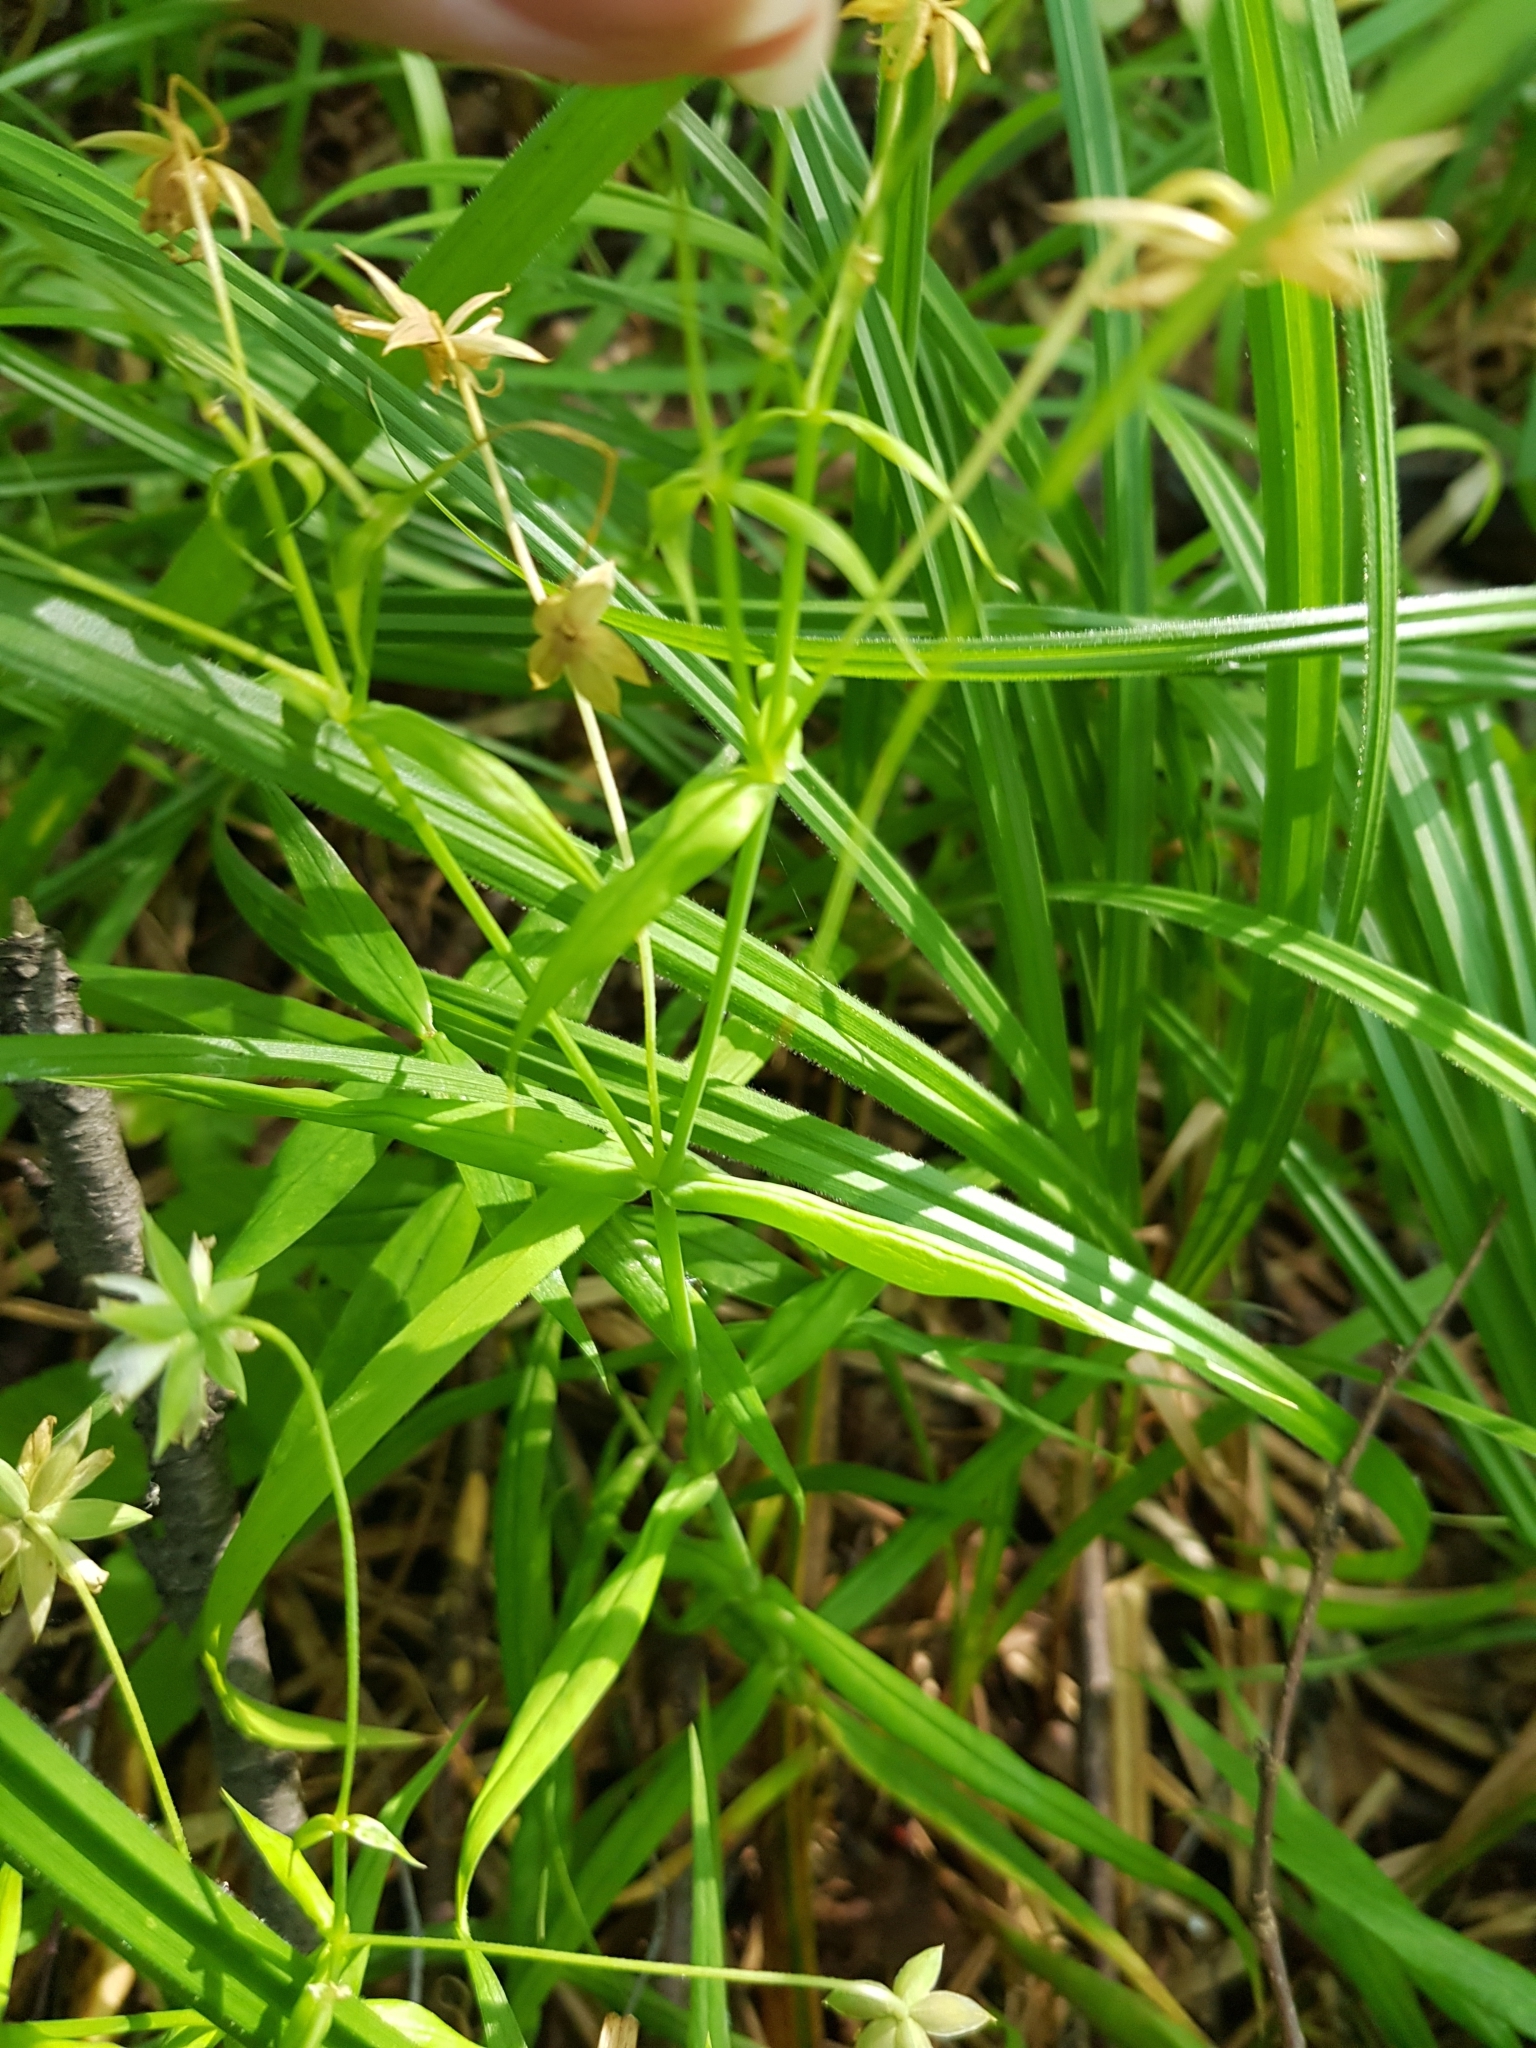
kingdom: Plantae
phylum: Tracheophyta
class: Magnoliopsida
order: Caryophyllales
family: Caryophyllaceae
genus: Rabelera
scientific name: Rabelera holostea
